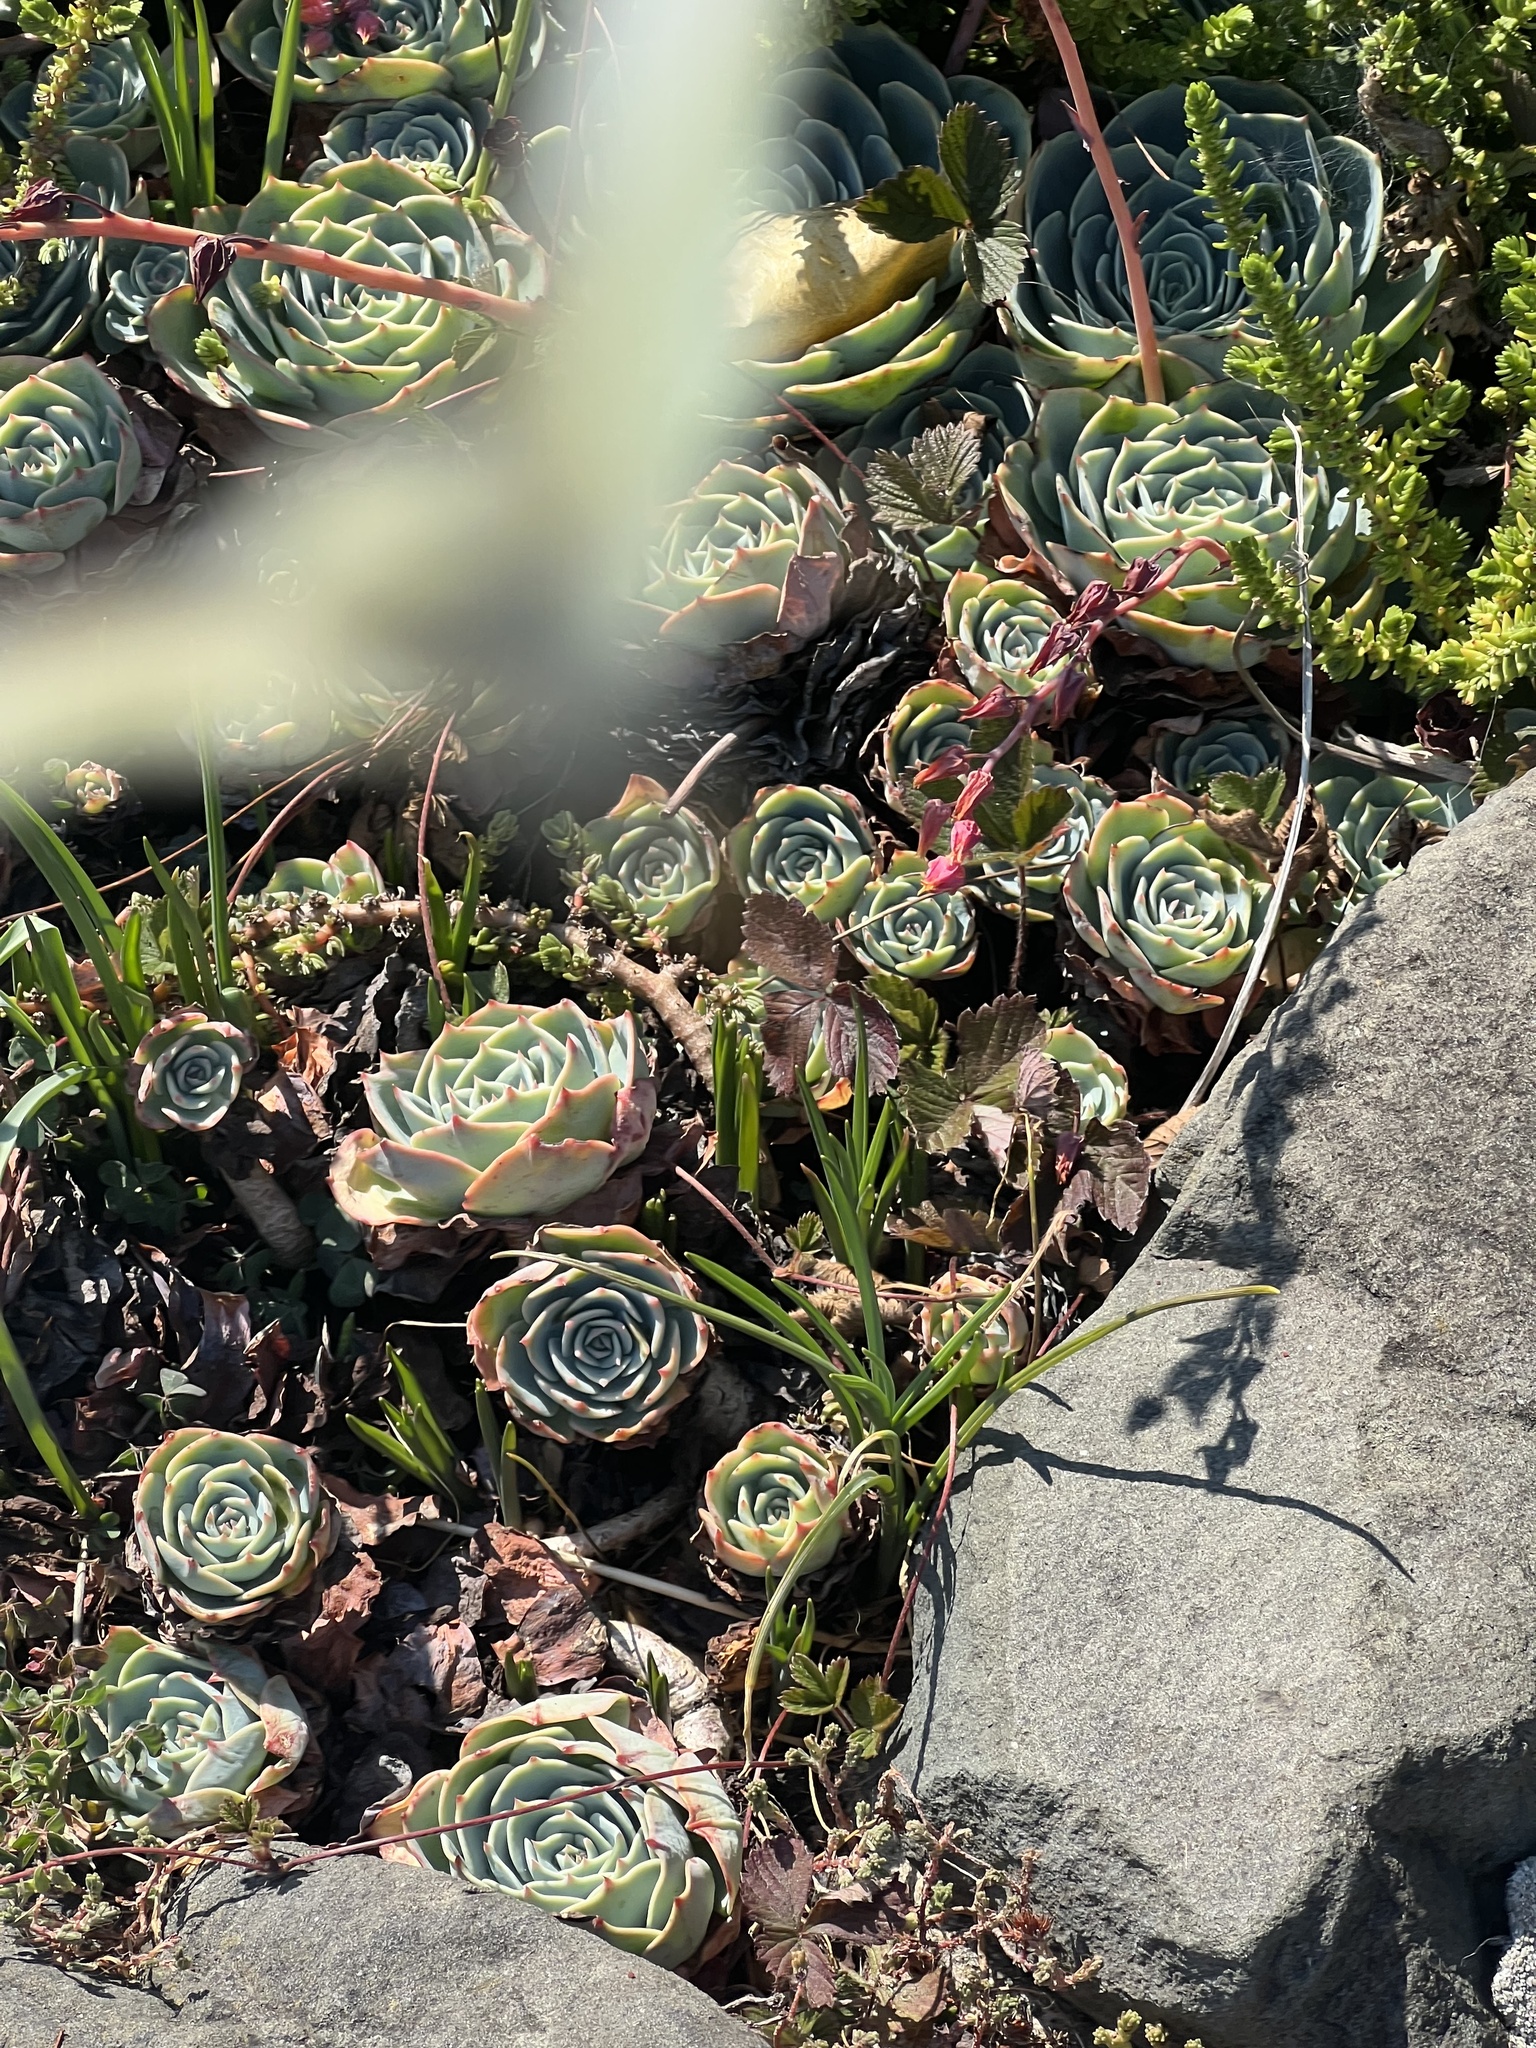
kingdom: Animalia
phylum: Arthropoda
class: Insecta
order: Lepidoptera
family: Pieridae
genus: Pieris
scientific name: Pieris rapae
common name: Small white
